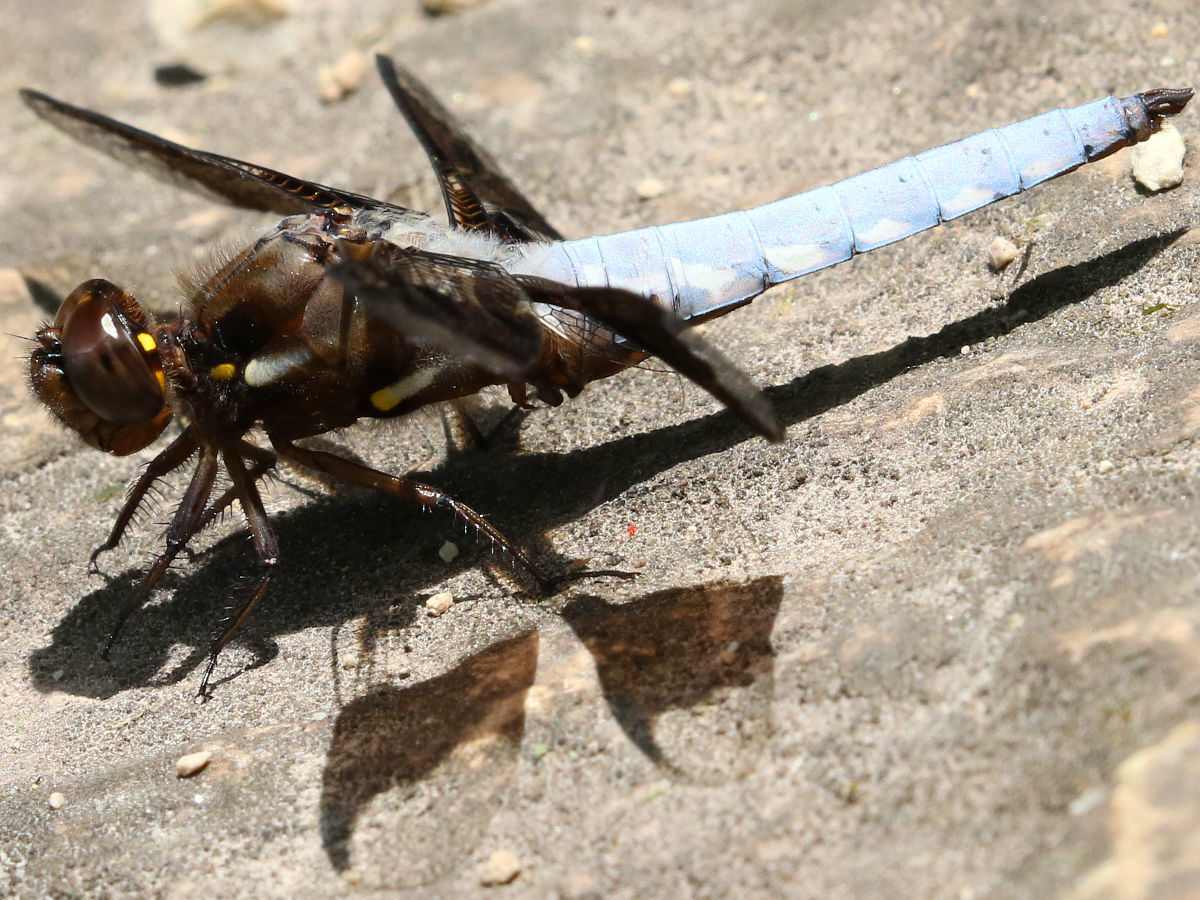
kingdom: Animalia
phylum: Arthropoda
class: Insecta
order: Odonata
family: Libellulidae
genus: Plathemis
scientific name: Plathemis lydia
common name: Common whitetail
